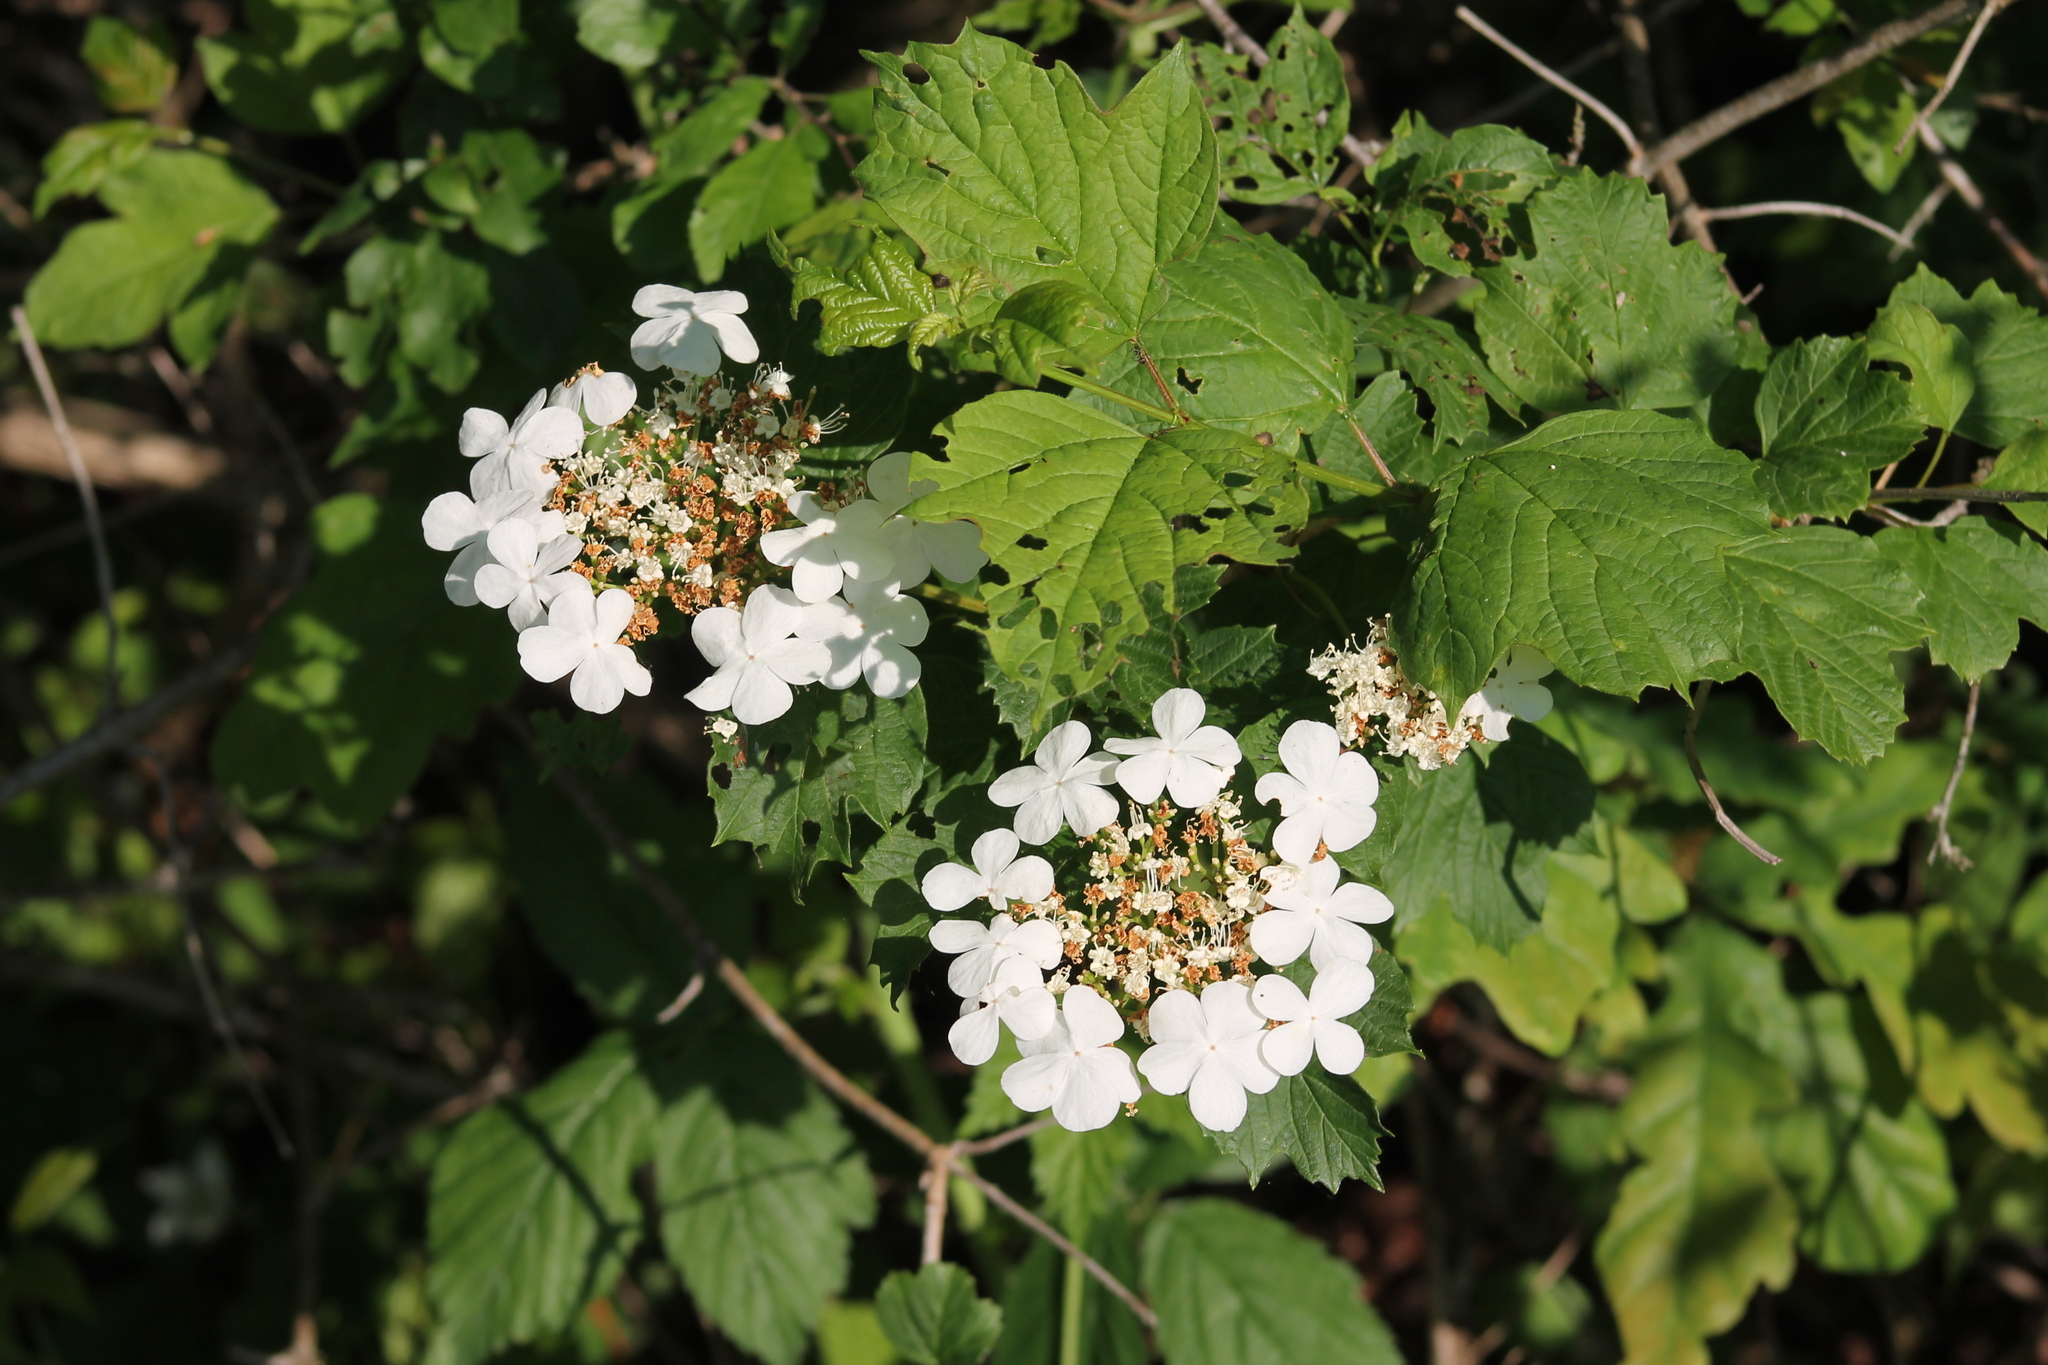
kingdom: Plantae
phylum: Tracheophyta
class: Magnoliopsida
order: Dipsacales
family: Viburnaceae
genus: Viburnum
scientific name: Viburnum opulus
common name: Guelder-rose
